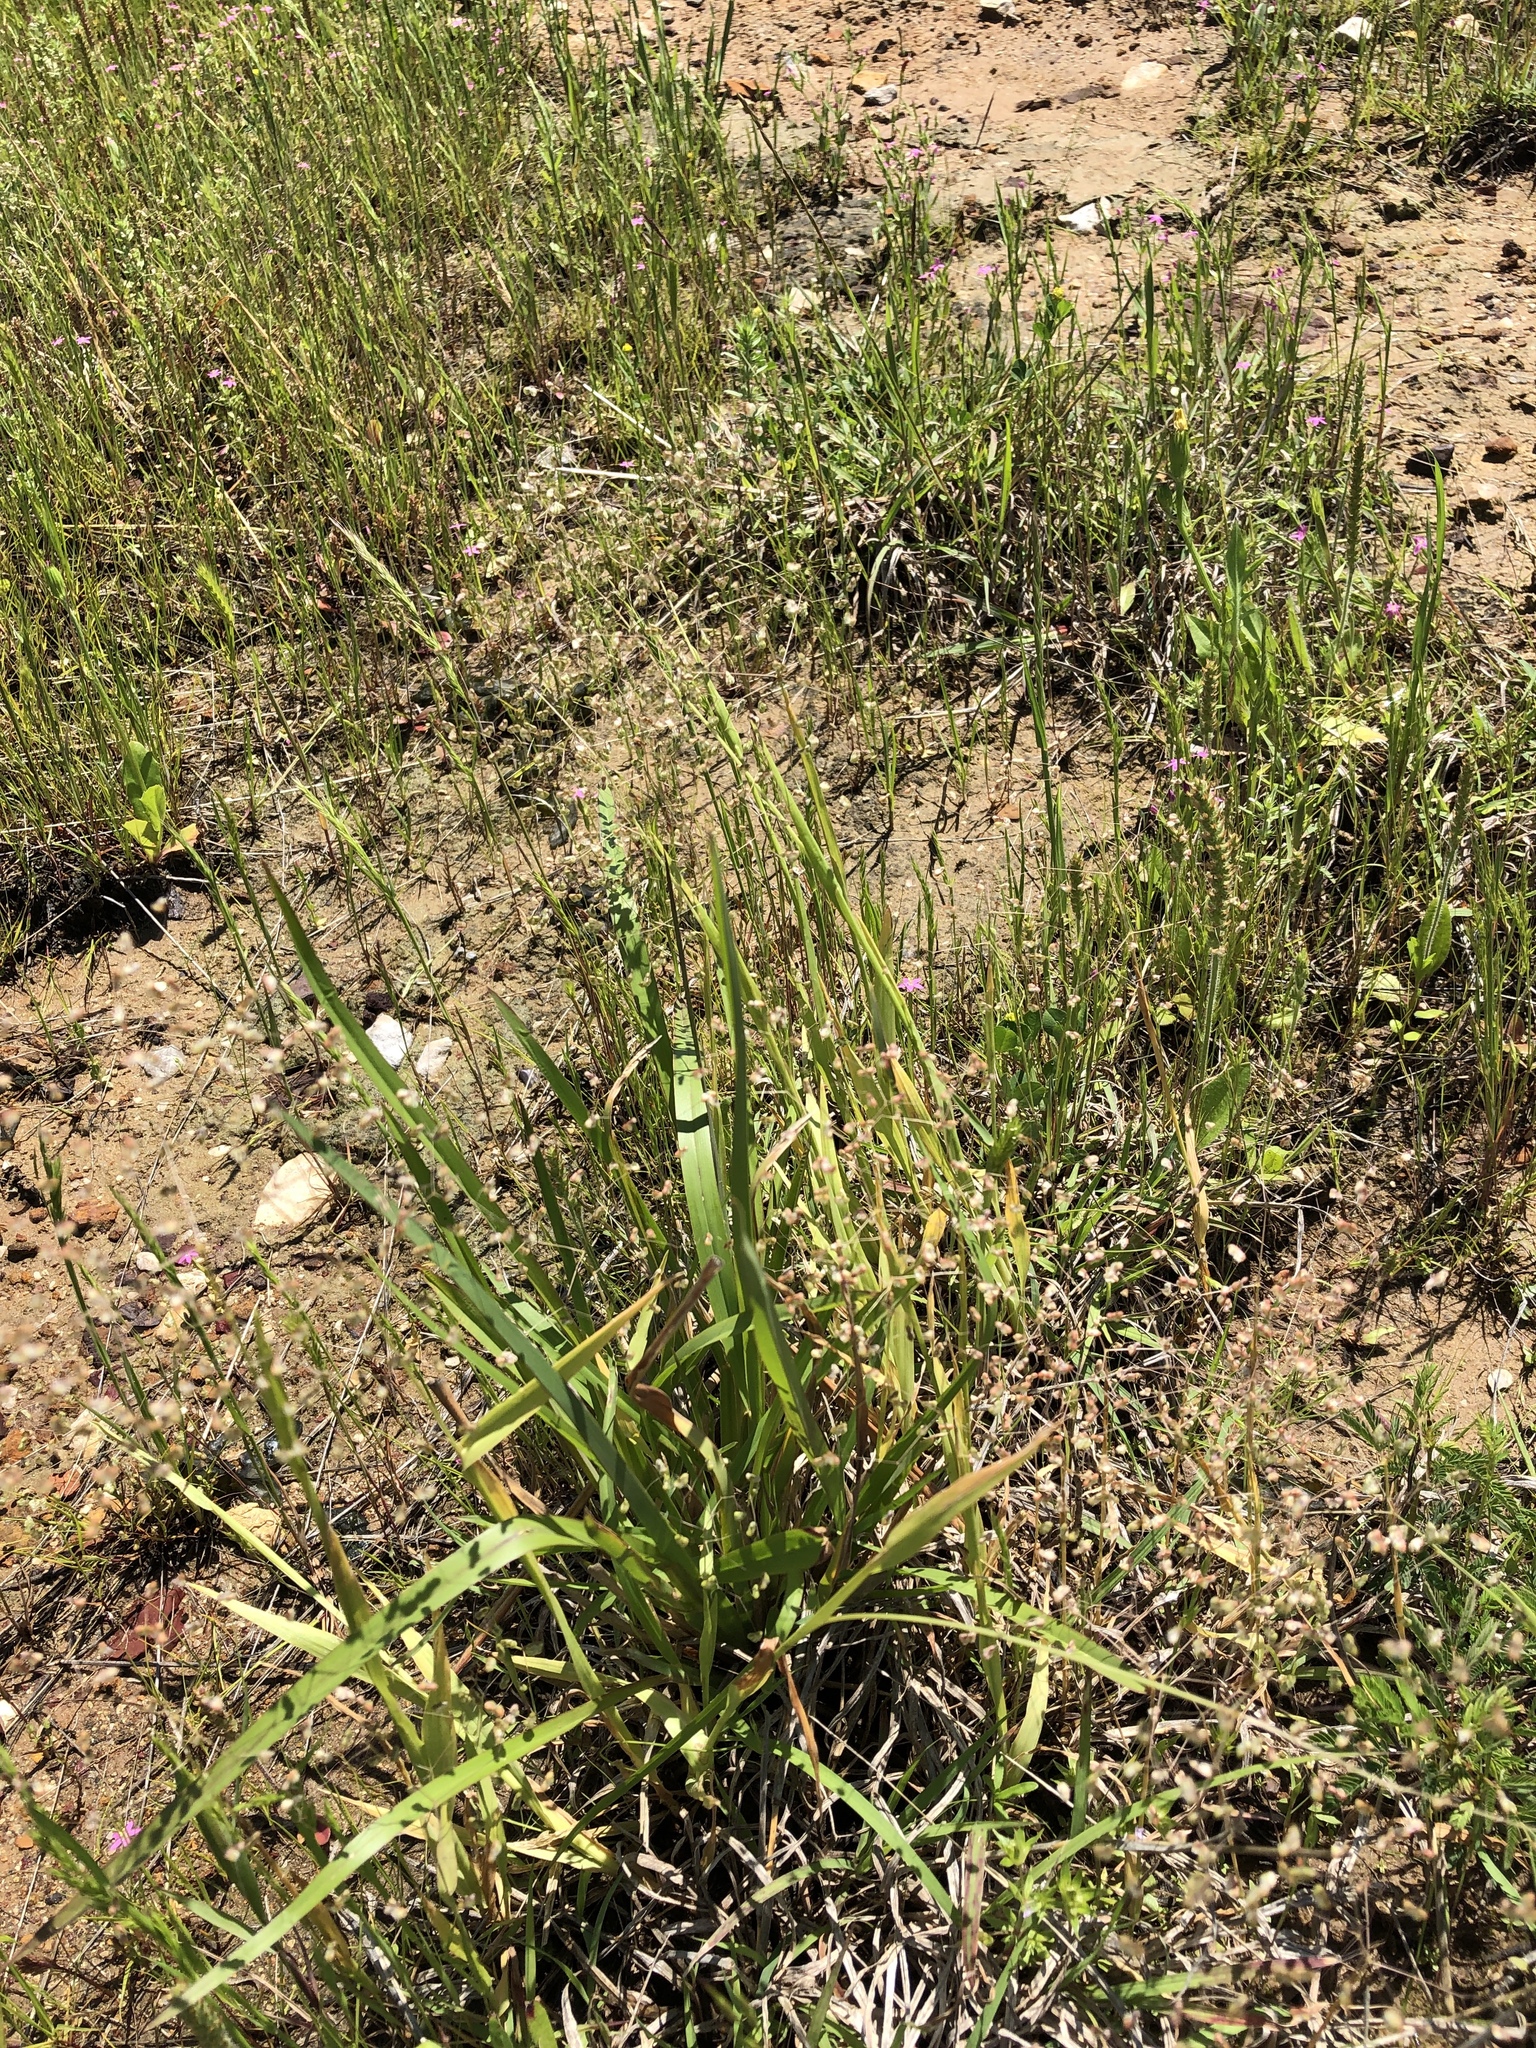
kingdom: Plantae
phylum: Tracheophyta
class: Liliopsida
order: Poales
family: Poaceae
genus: Briza
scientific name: Briza minor
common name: Lesser quaking-grass
